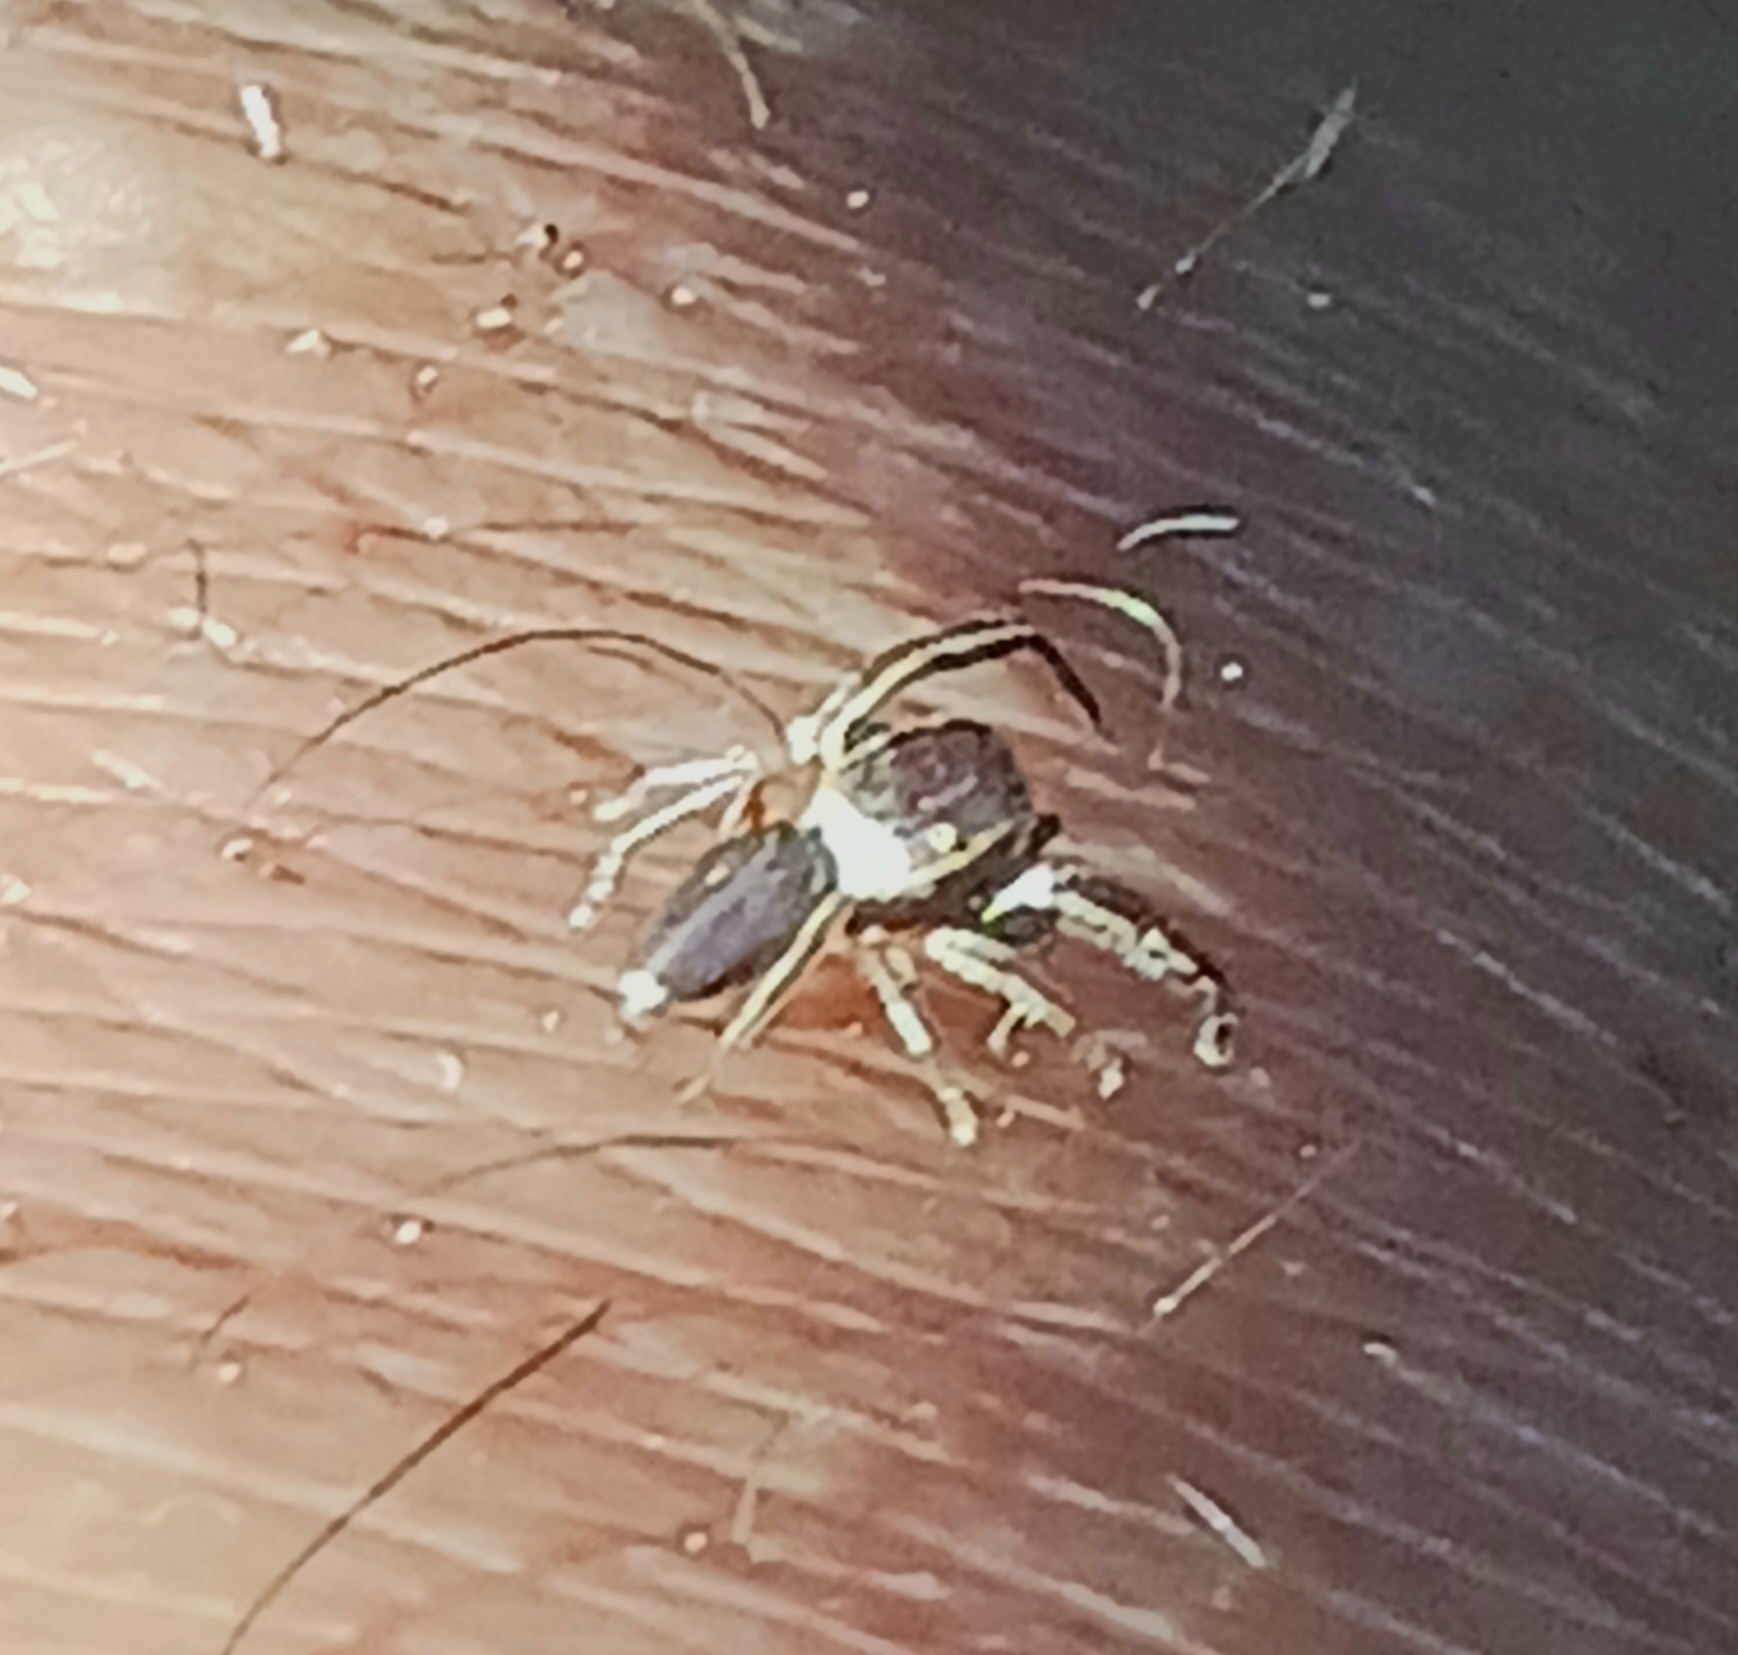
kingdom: Animalia
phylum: Arthropoda
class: Arachnida
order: Araneae
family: Salticidae
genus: Beata
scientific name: Beata wickhami
